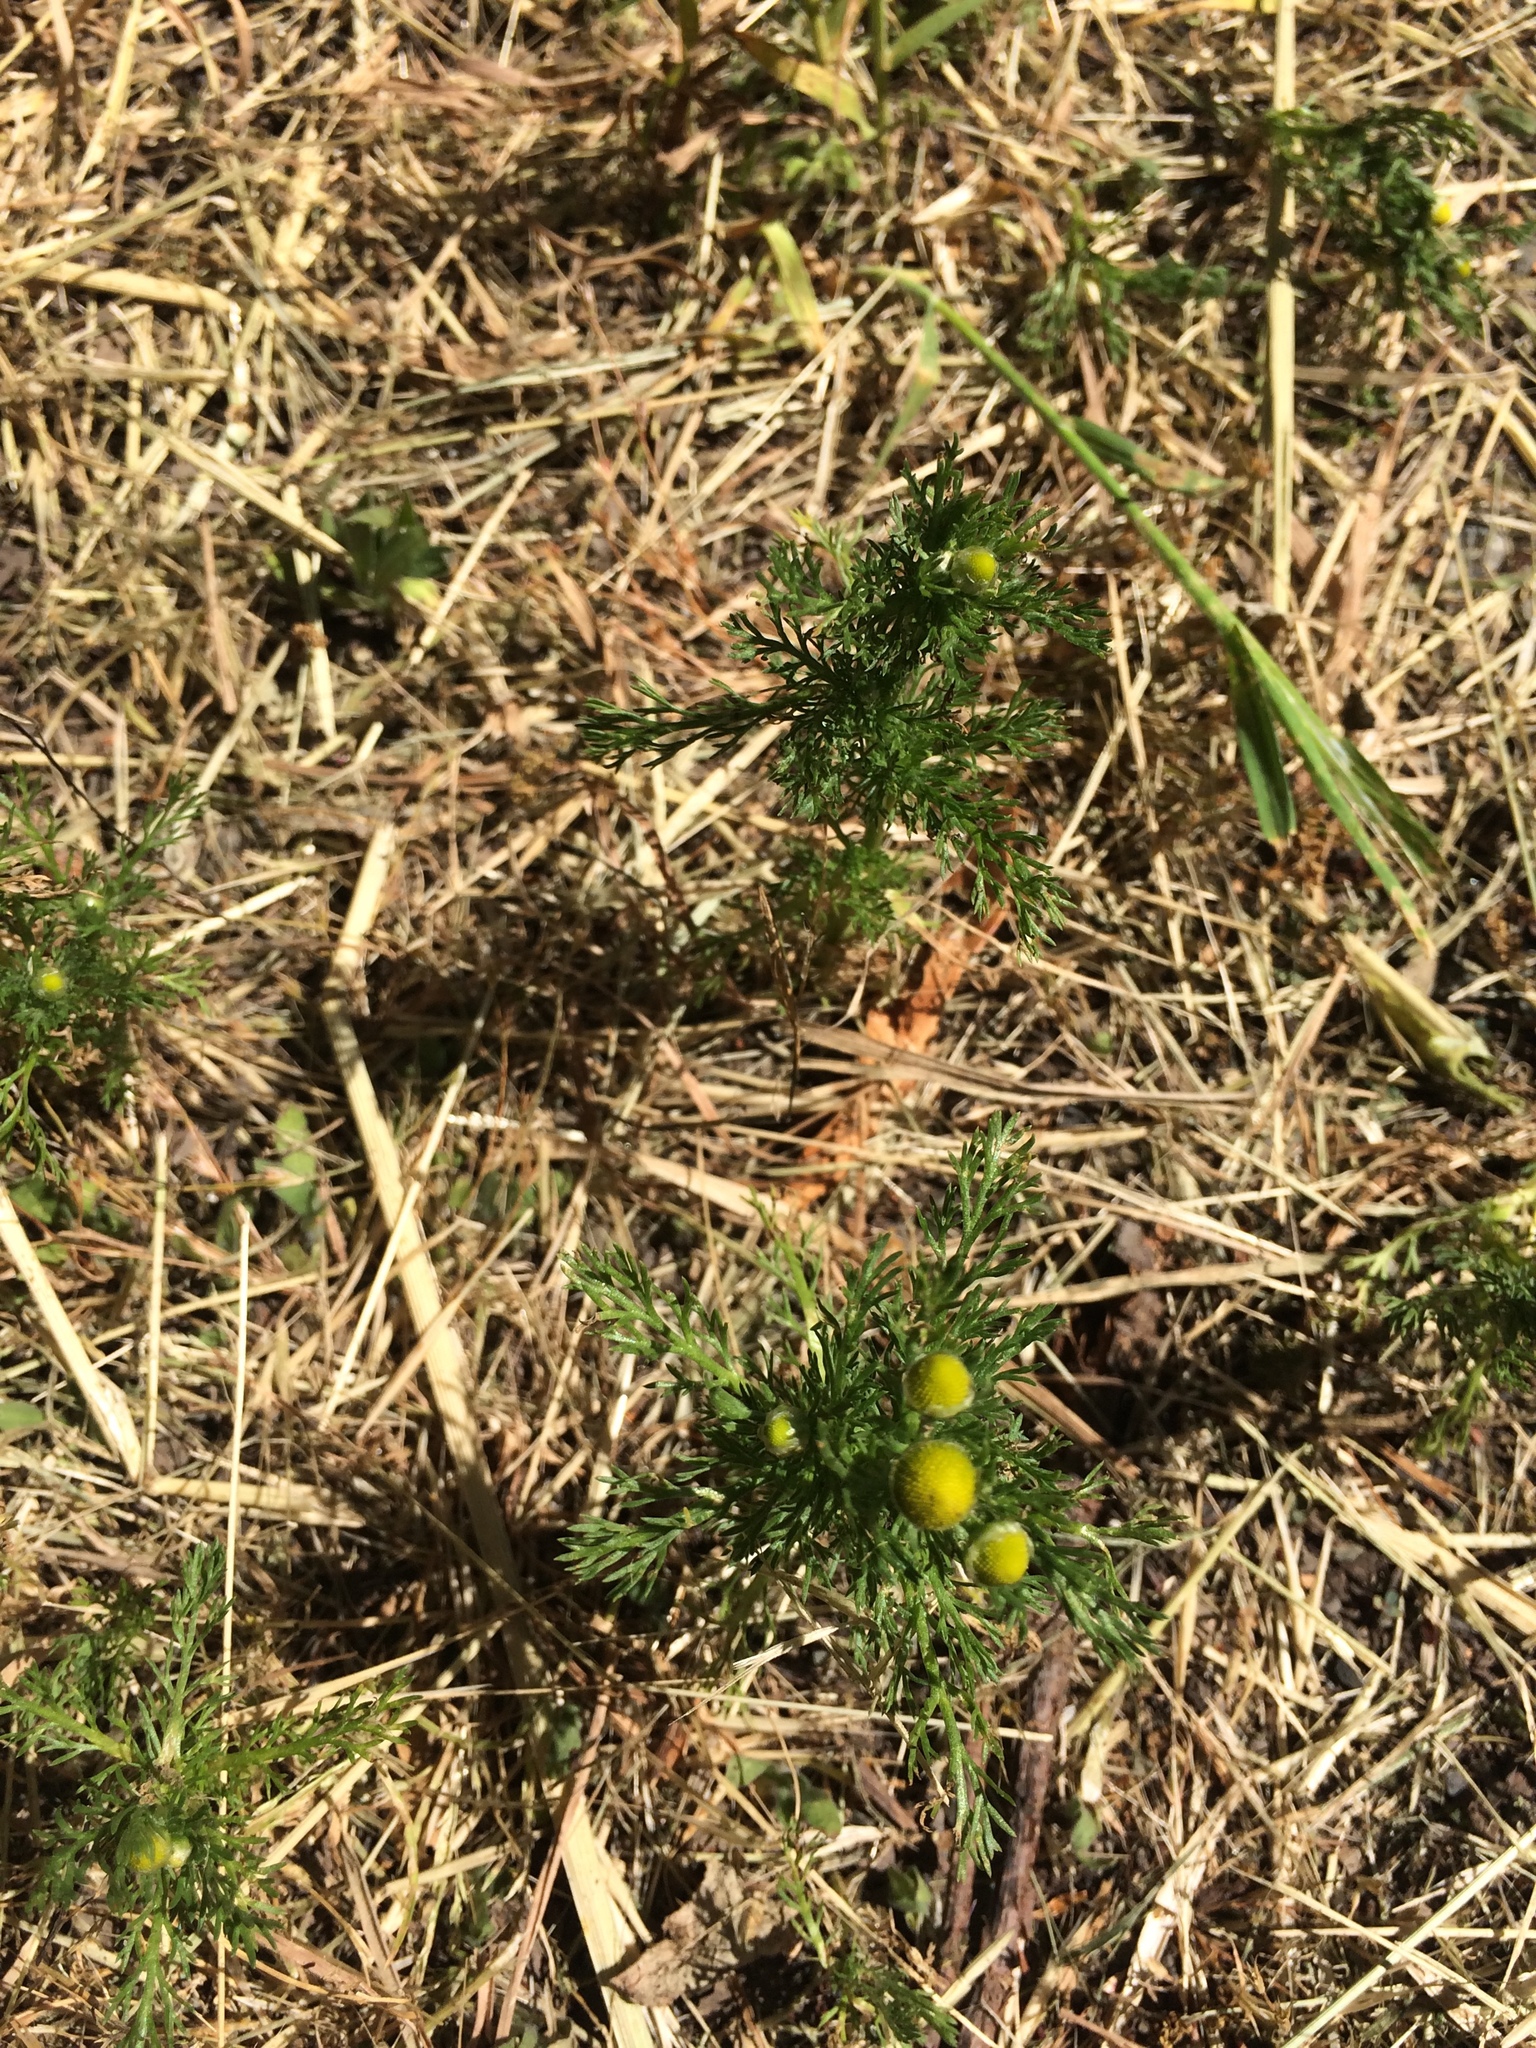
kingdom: Plantae
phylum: Tracheophyta
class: Magnoliopsida
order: Asterales
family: Asteraceae
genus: Matricaria
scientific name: Matricaria discoidea
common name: Disc mayweed
